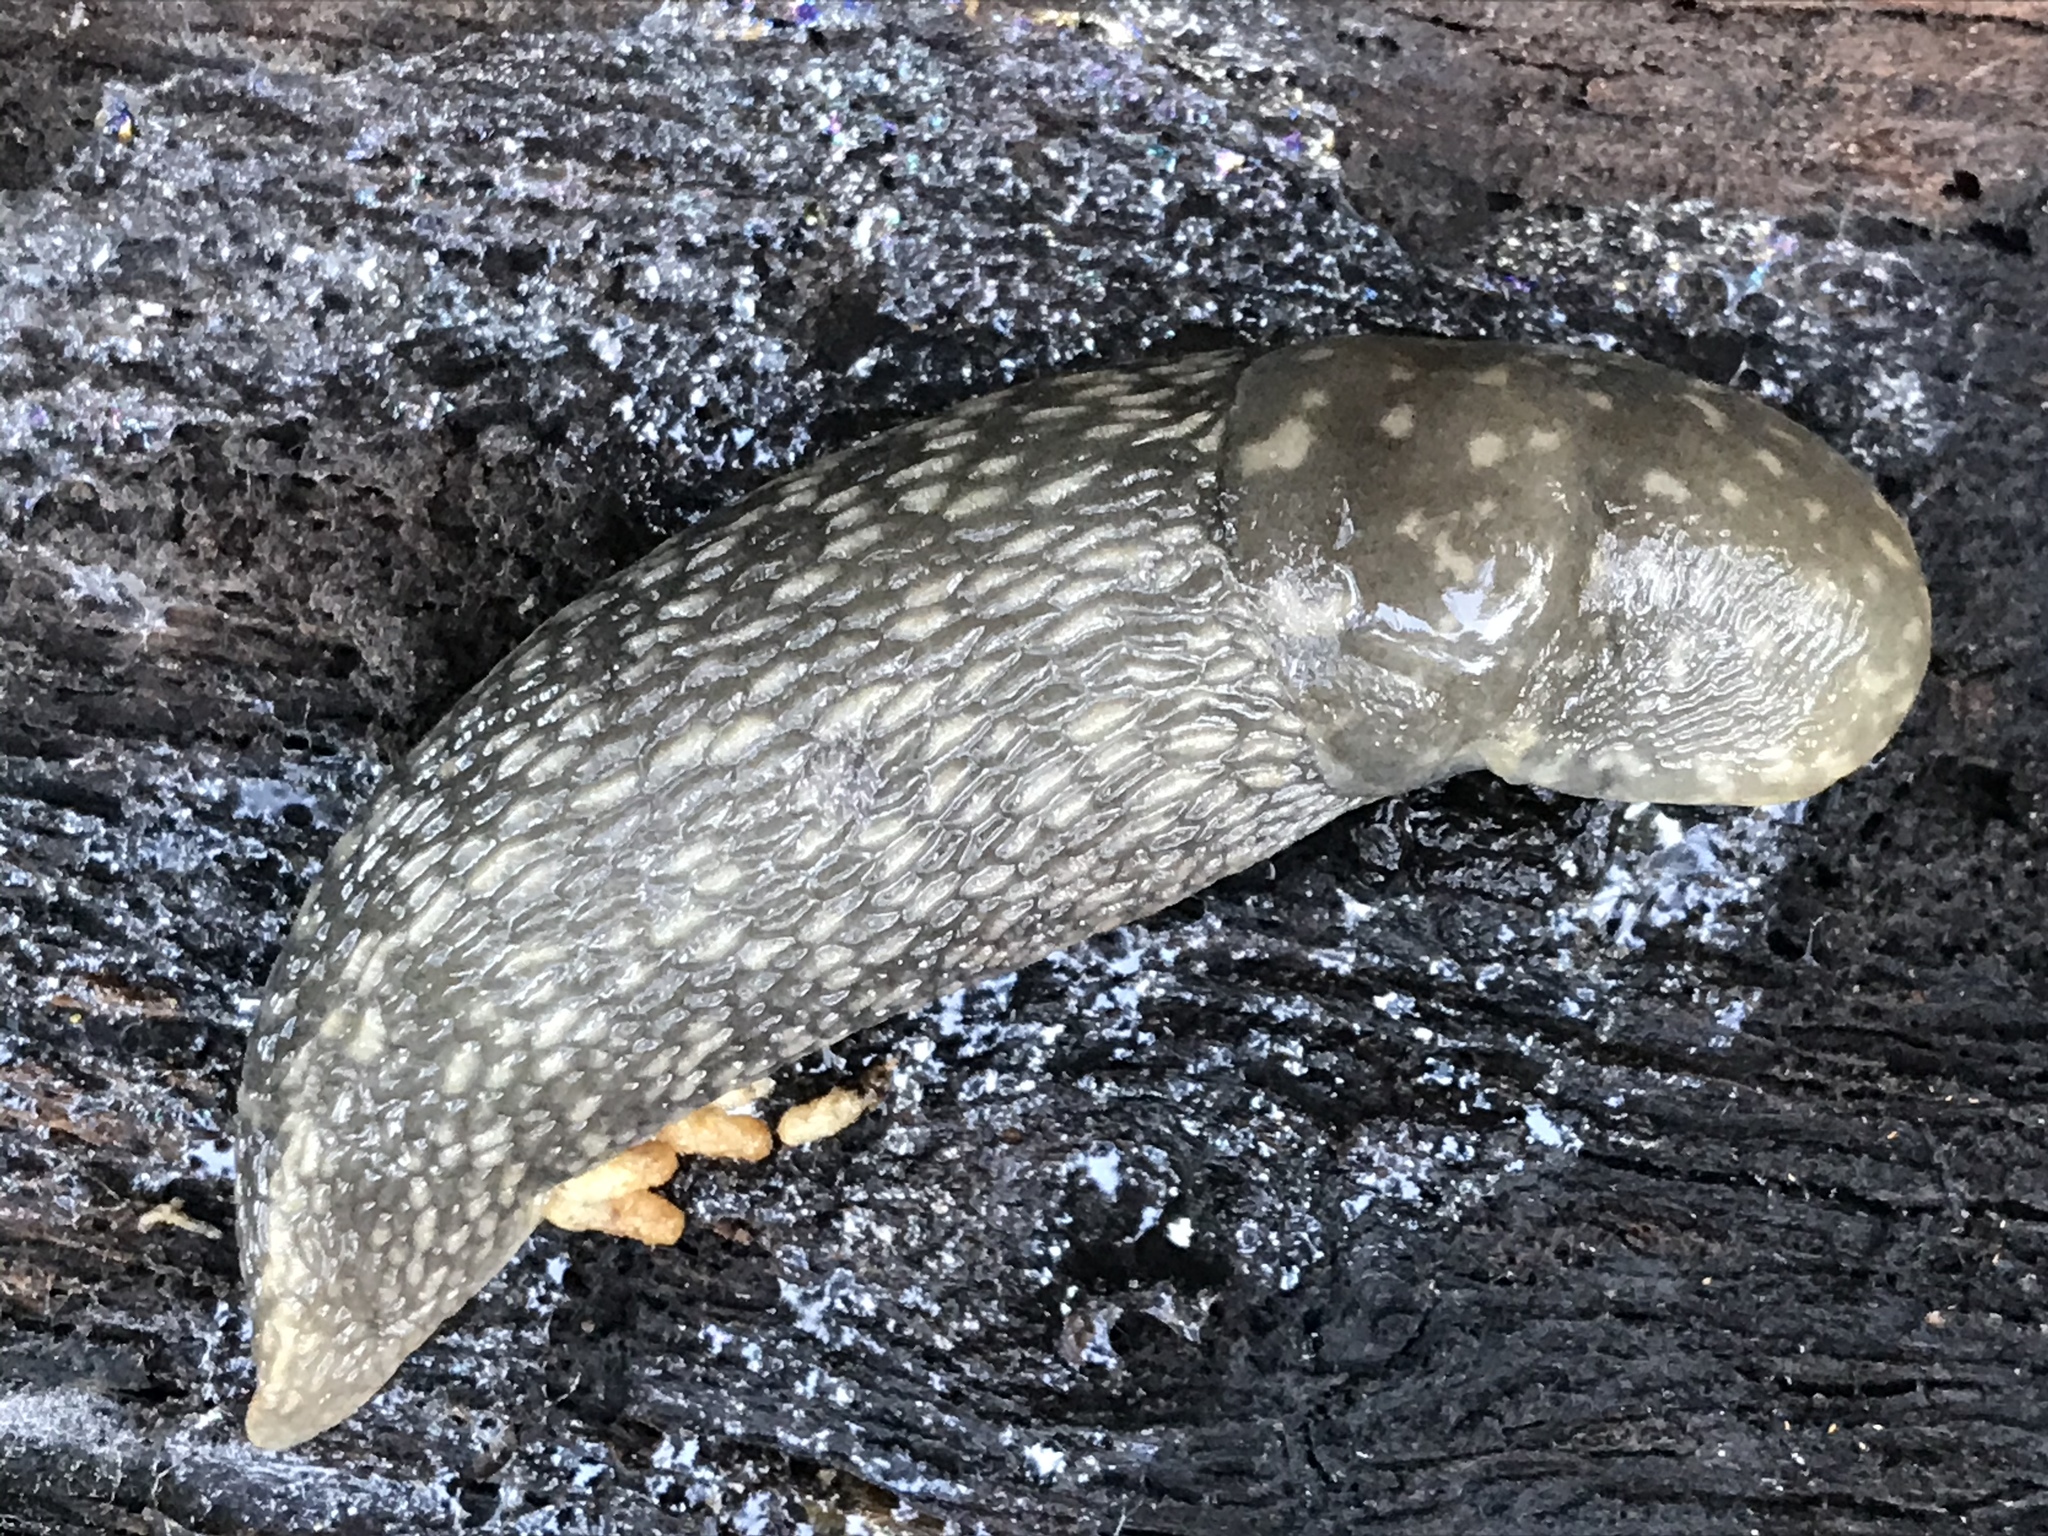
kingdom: Animalia
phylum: Mollusca
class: Gastropoda
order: Stylommatophora
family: Limacidae
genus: Limacus
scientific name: Limacus flavus
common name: Yellow gardenslug
